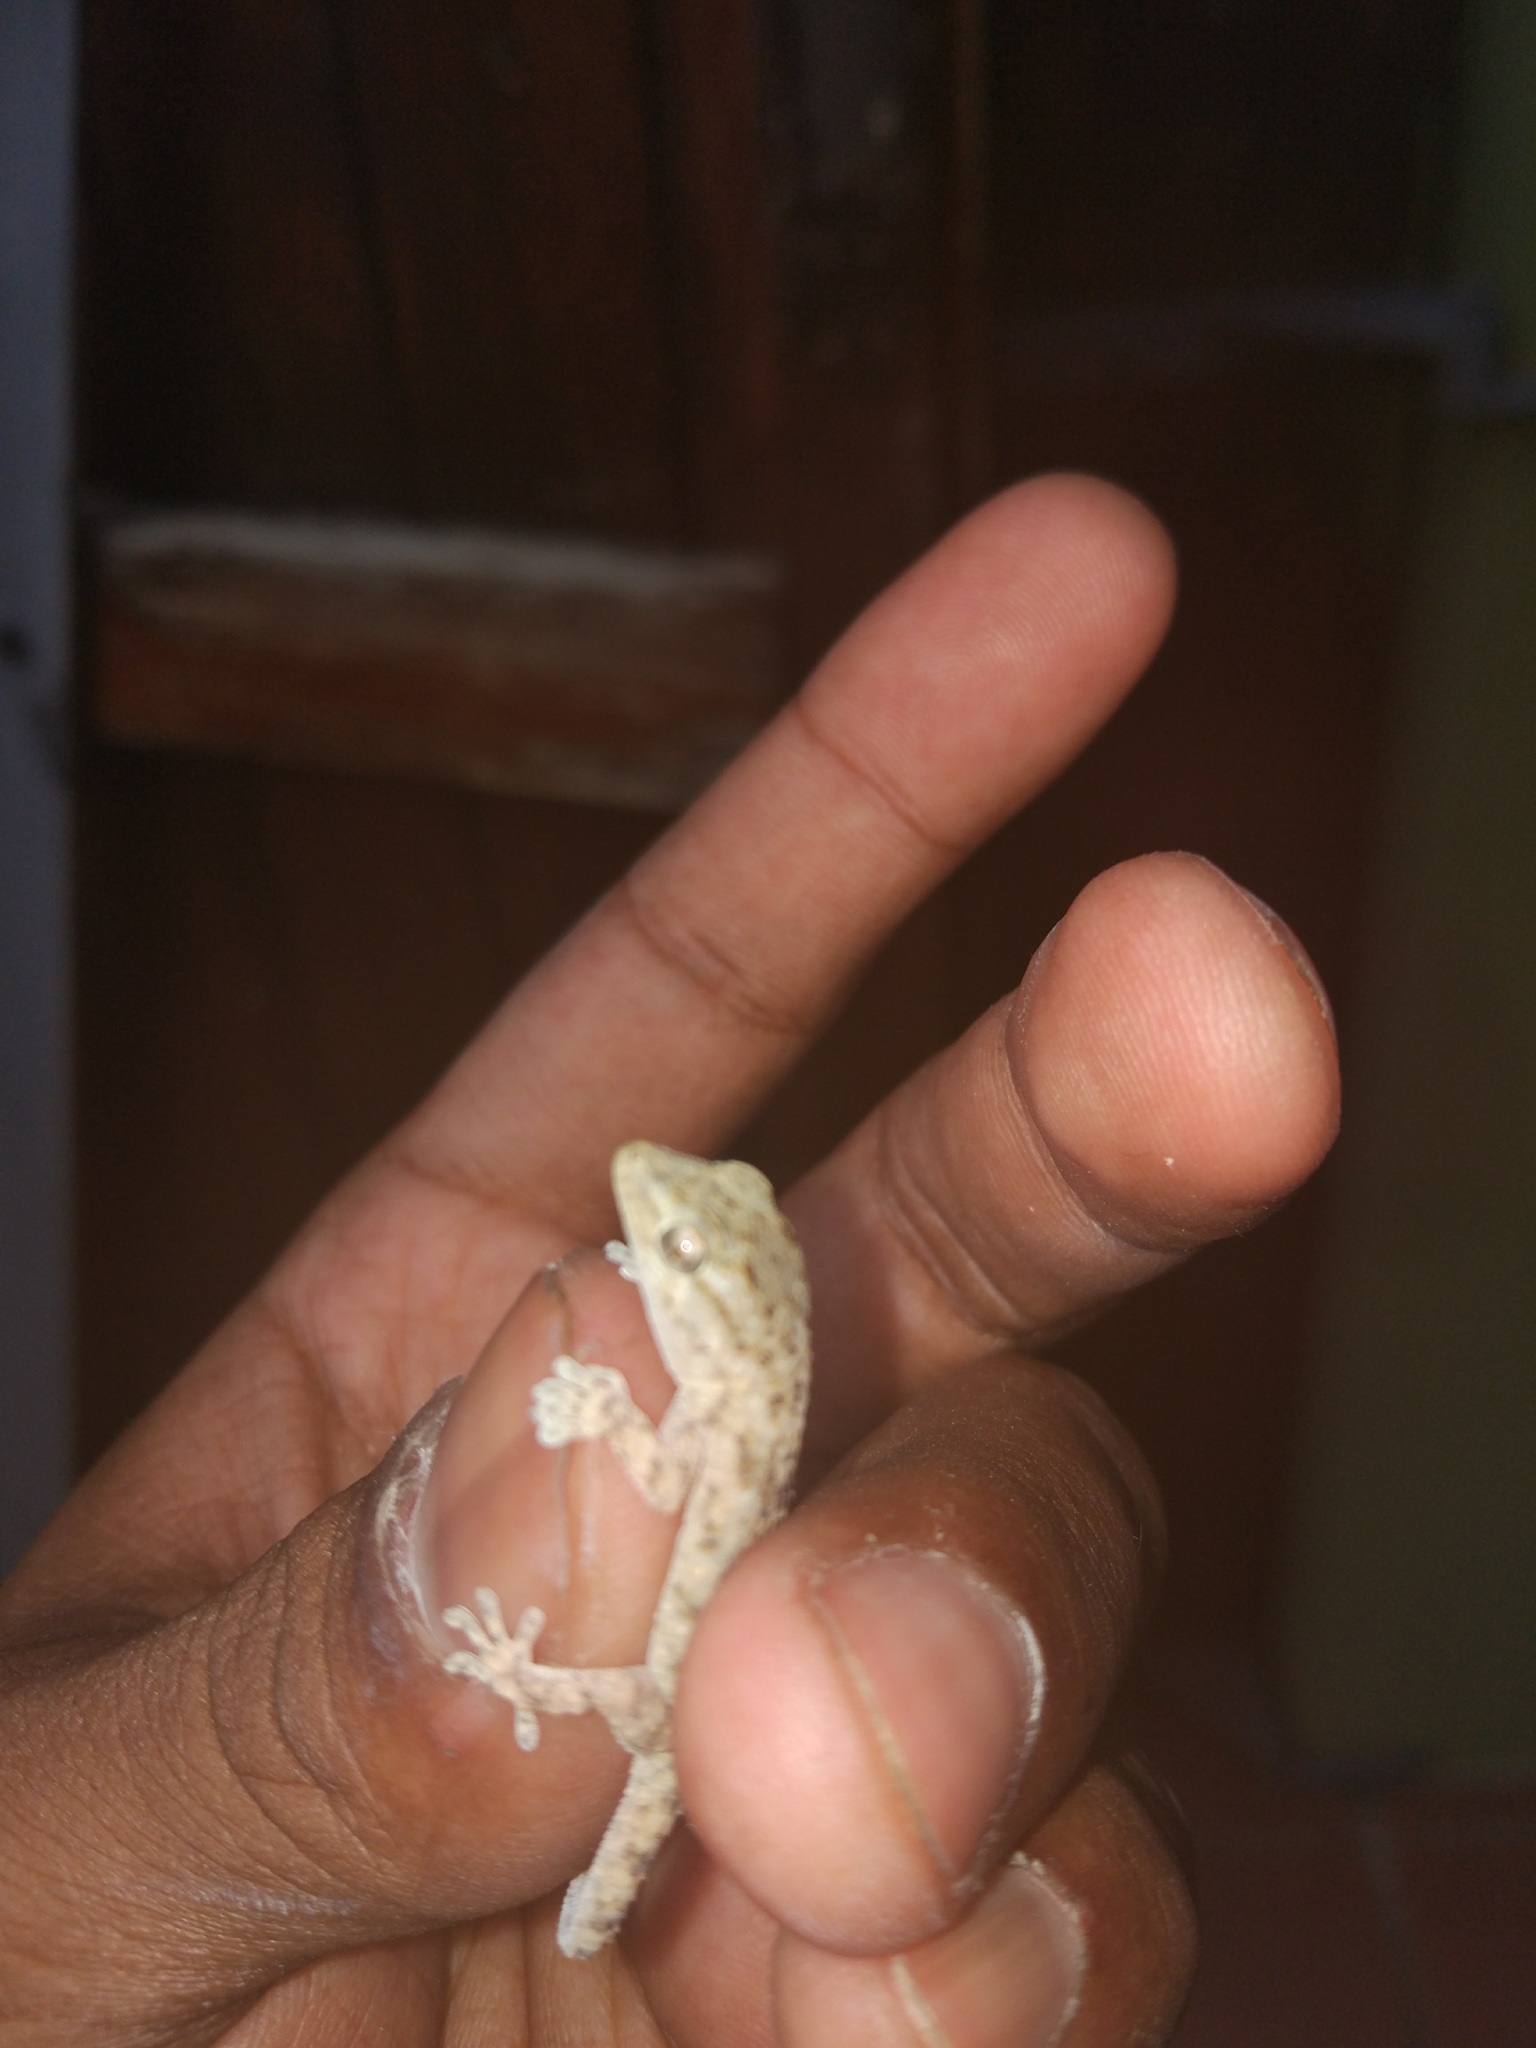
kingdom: Animalia
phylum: Chordata
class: Squamata
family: Phyllodactylidae
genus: Tarentola
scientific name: Tarentola mauritanica
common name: Moorish gecko
